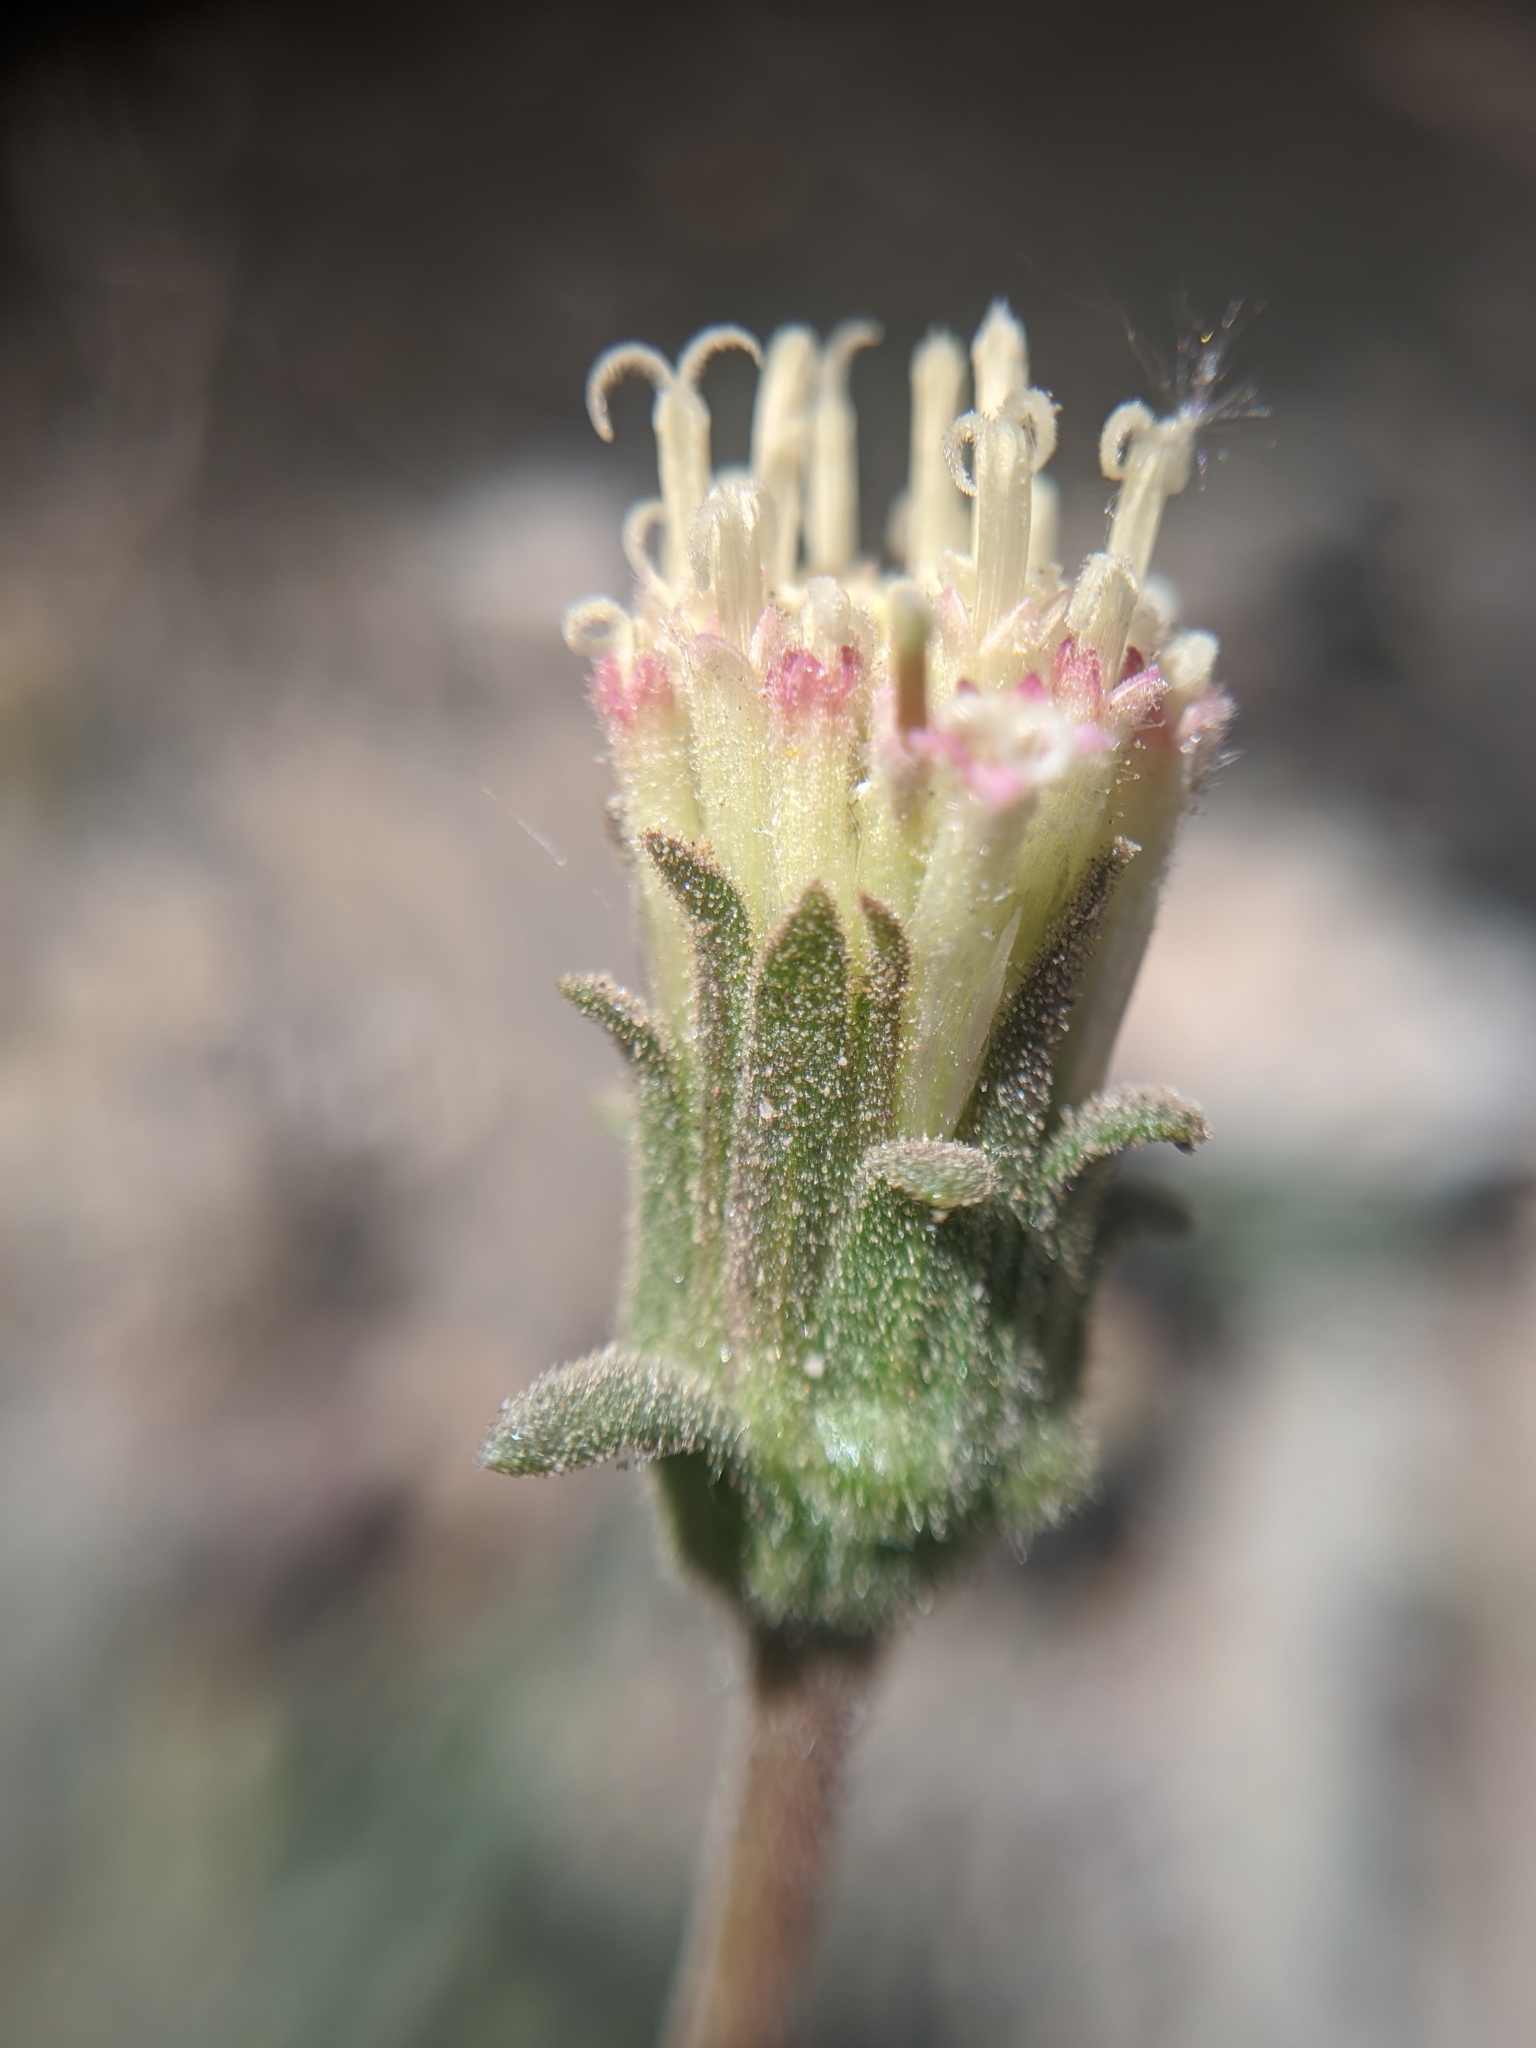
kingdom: Plantae
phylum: Tracheophyta
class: Magnoliopsida
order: Asterales
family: Asteraceae
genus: Chaenactis
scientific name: Chaenactis santolinoides
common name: Santolina pincushion
